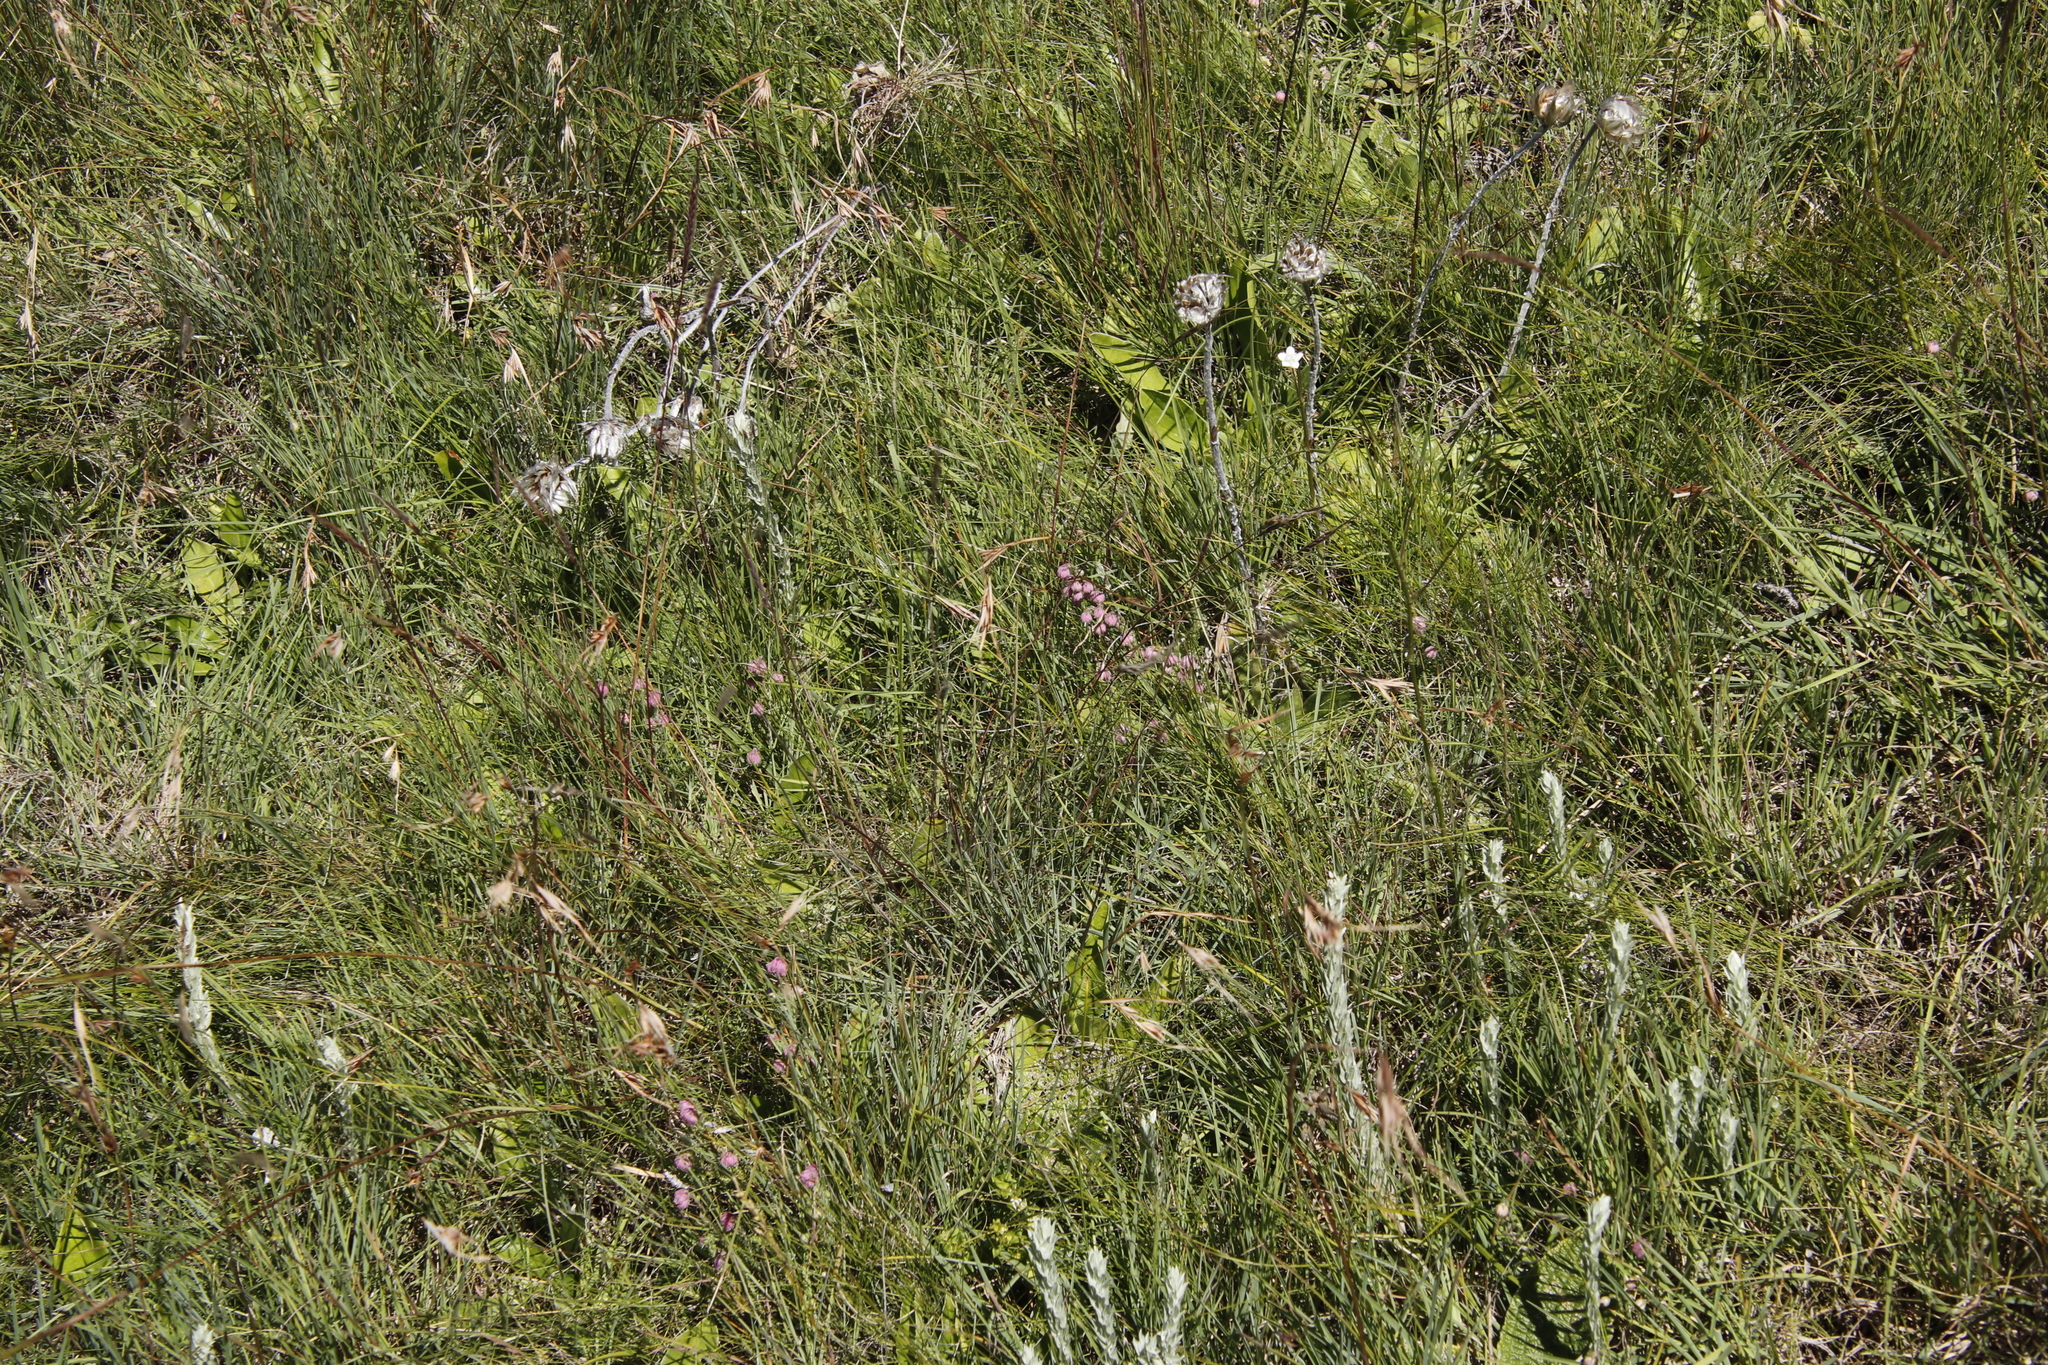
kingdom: Plantae
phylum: Tracheophyta
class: Magnoliopsida
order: Ericales
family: Ericaceae
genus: Erica
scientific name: Erica cooperi
